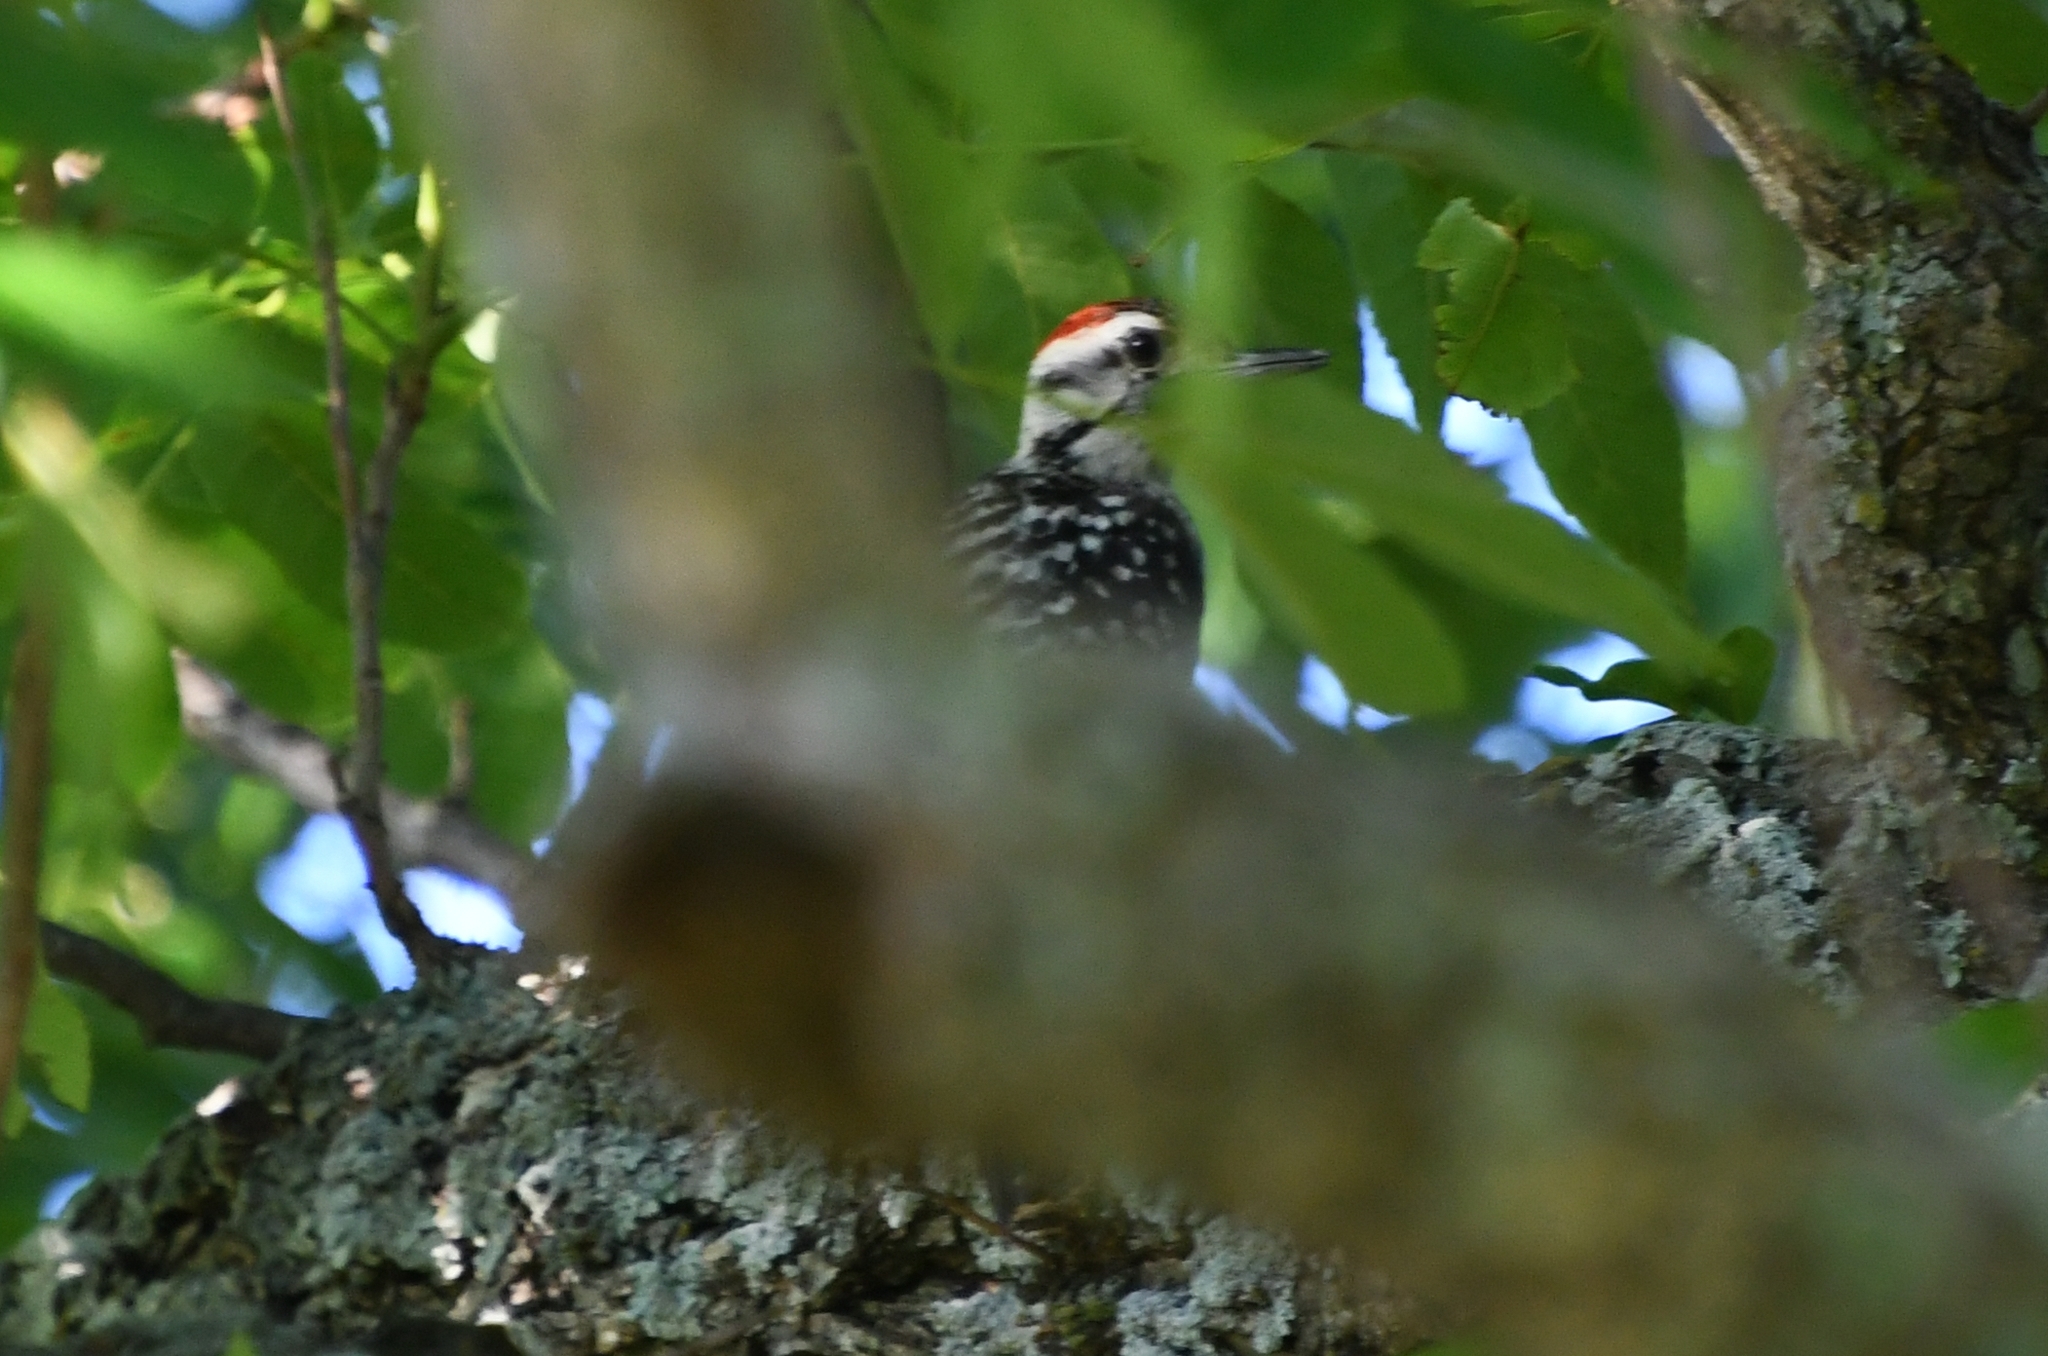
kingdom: Animalia
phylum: Chordata
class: Aves
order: Piciformes
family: Picidae
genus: Dryobates
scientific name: Dryobates scalaris
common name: Ladder-backed woodpecker
